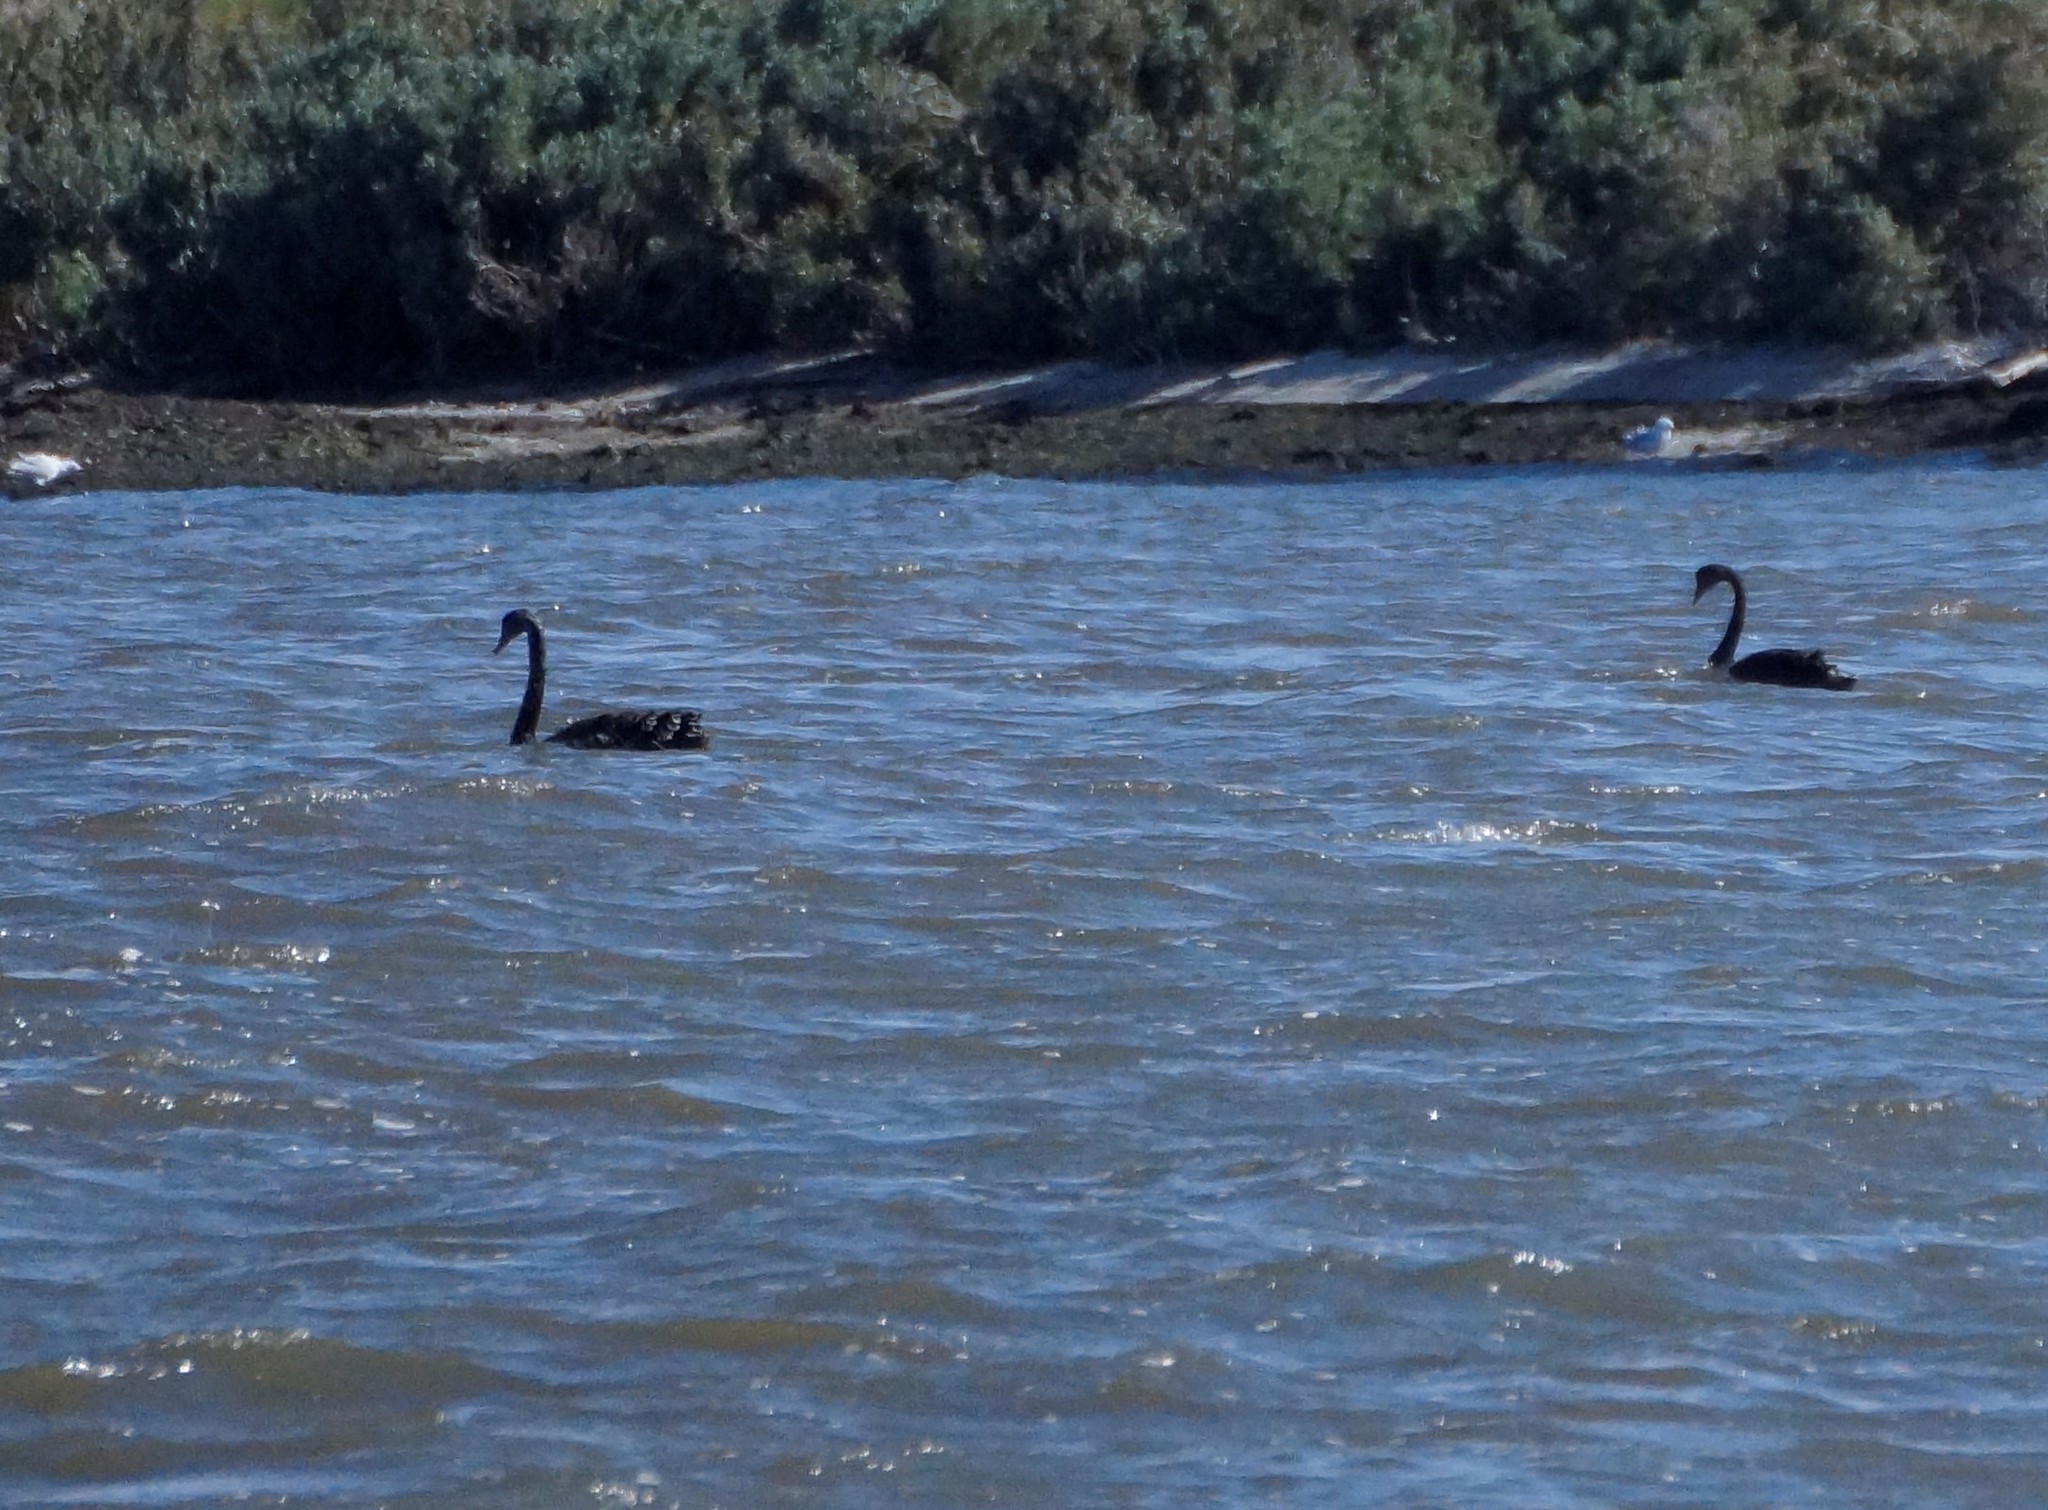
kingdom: Animalia
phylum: Chordata
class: Aves
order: Anseriformes
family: Anatidae
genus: Cygnus
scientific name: Cygnus atratus
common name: Black swan
